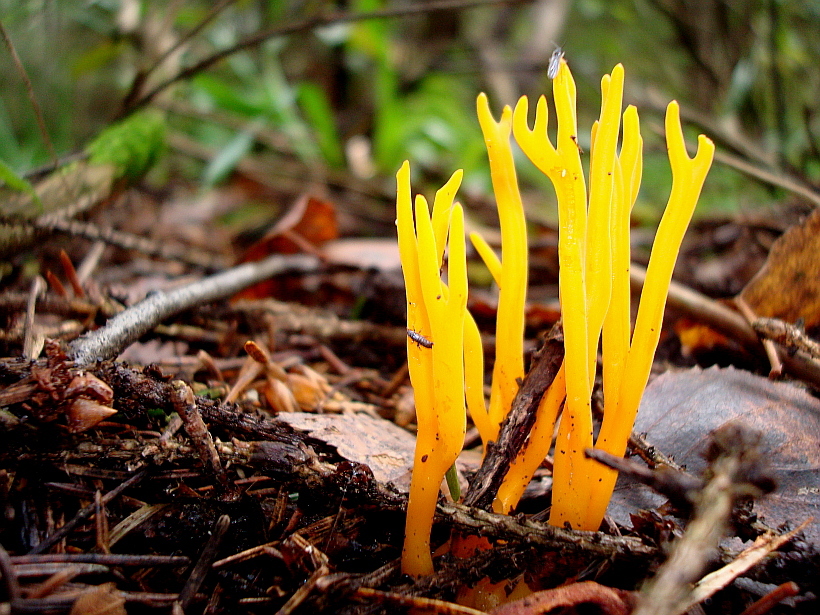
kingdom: Fungi
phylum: Basidiomycota
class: Dacrymycetes
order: Dacrymycetales
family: Dacrymycetaceae
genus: Calocera
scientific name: Calocera viscosa
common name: Yellow stagshorn
